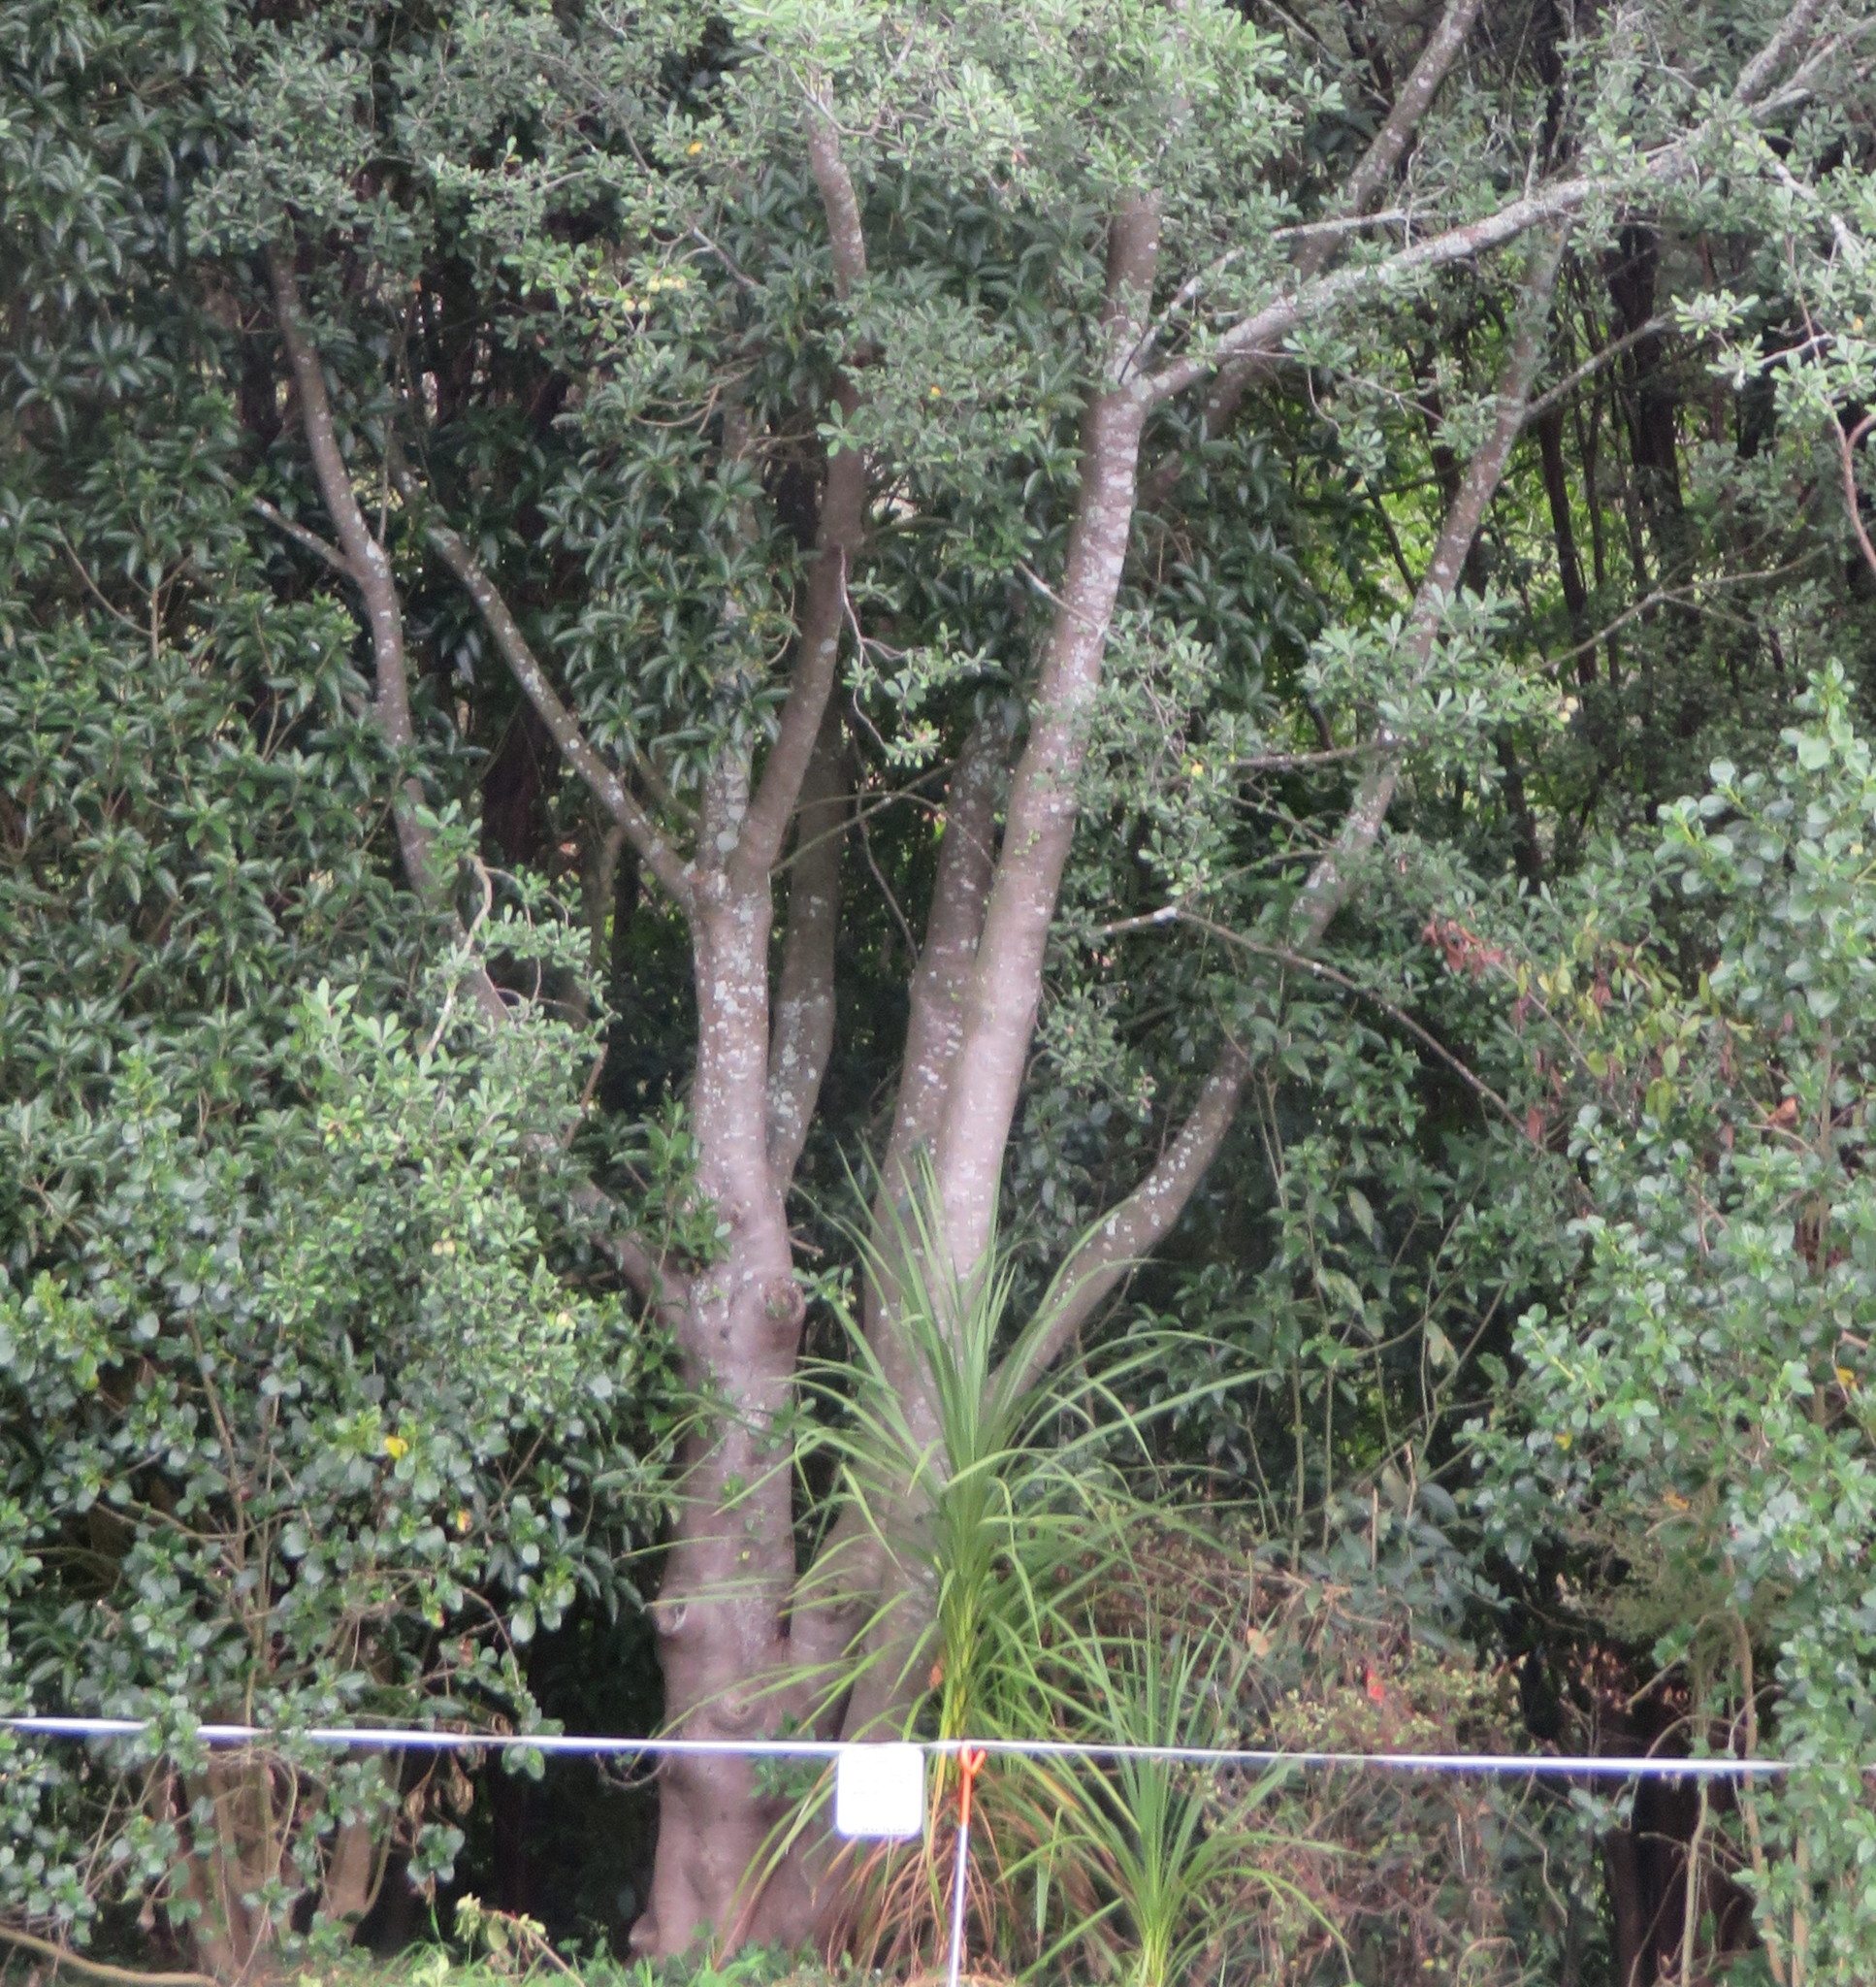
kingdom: Plantae
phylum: Tracheophyta
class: Magnoliopsida
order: Apiales
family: Pittosporaceae
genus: Pittosporum
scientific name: Pittosporum crassifolium
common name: Karo
